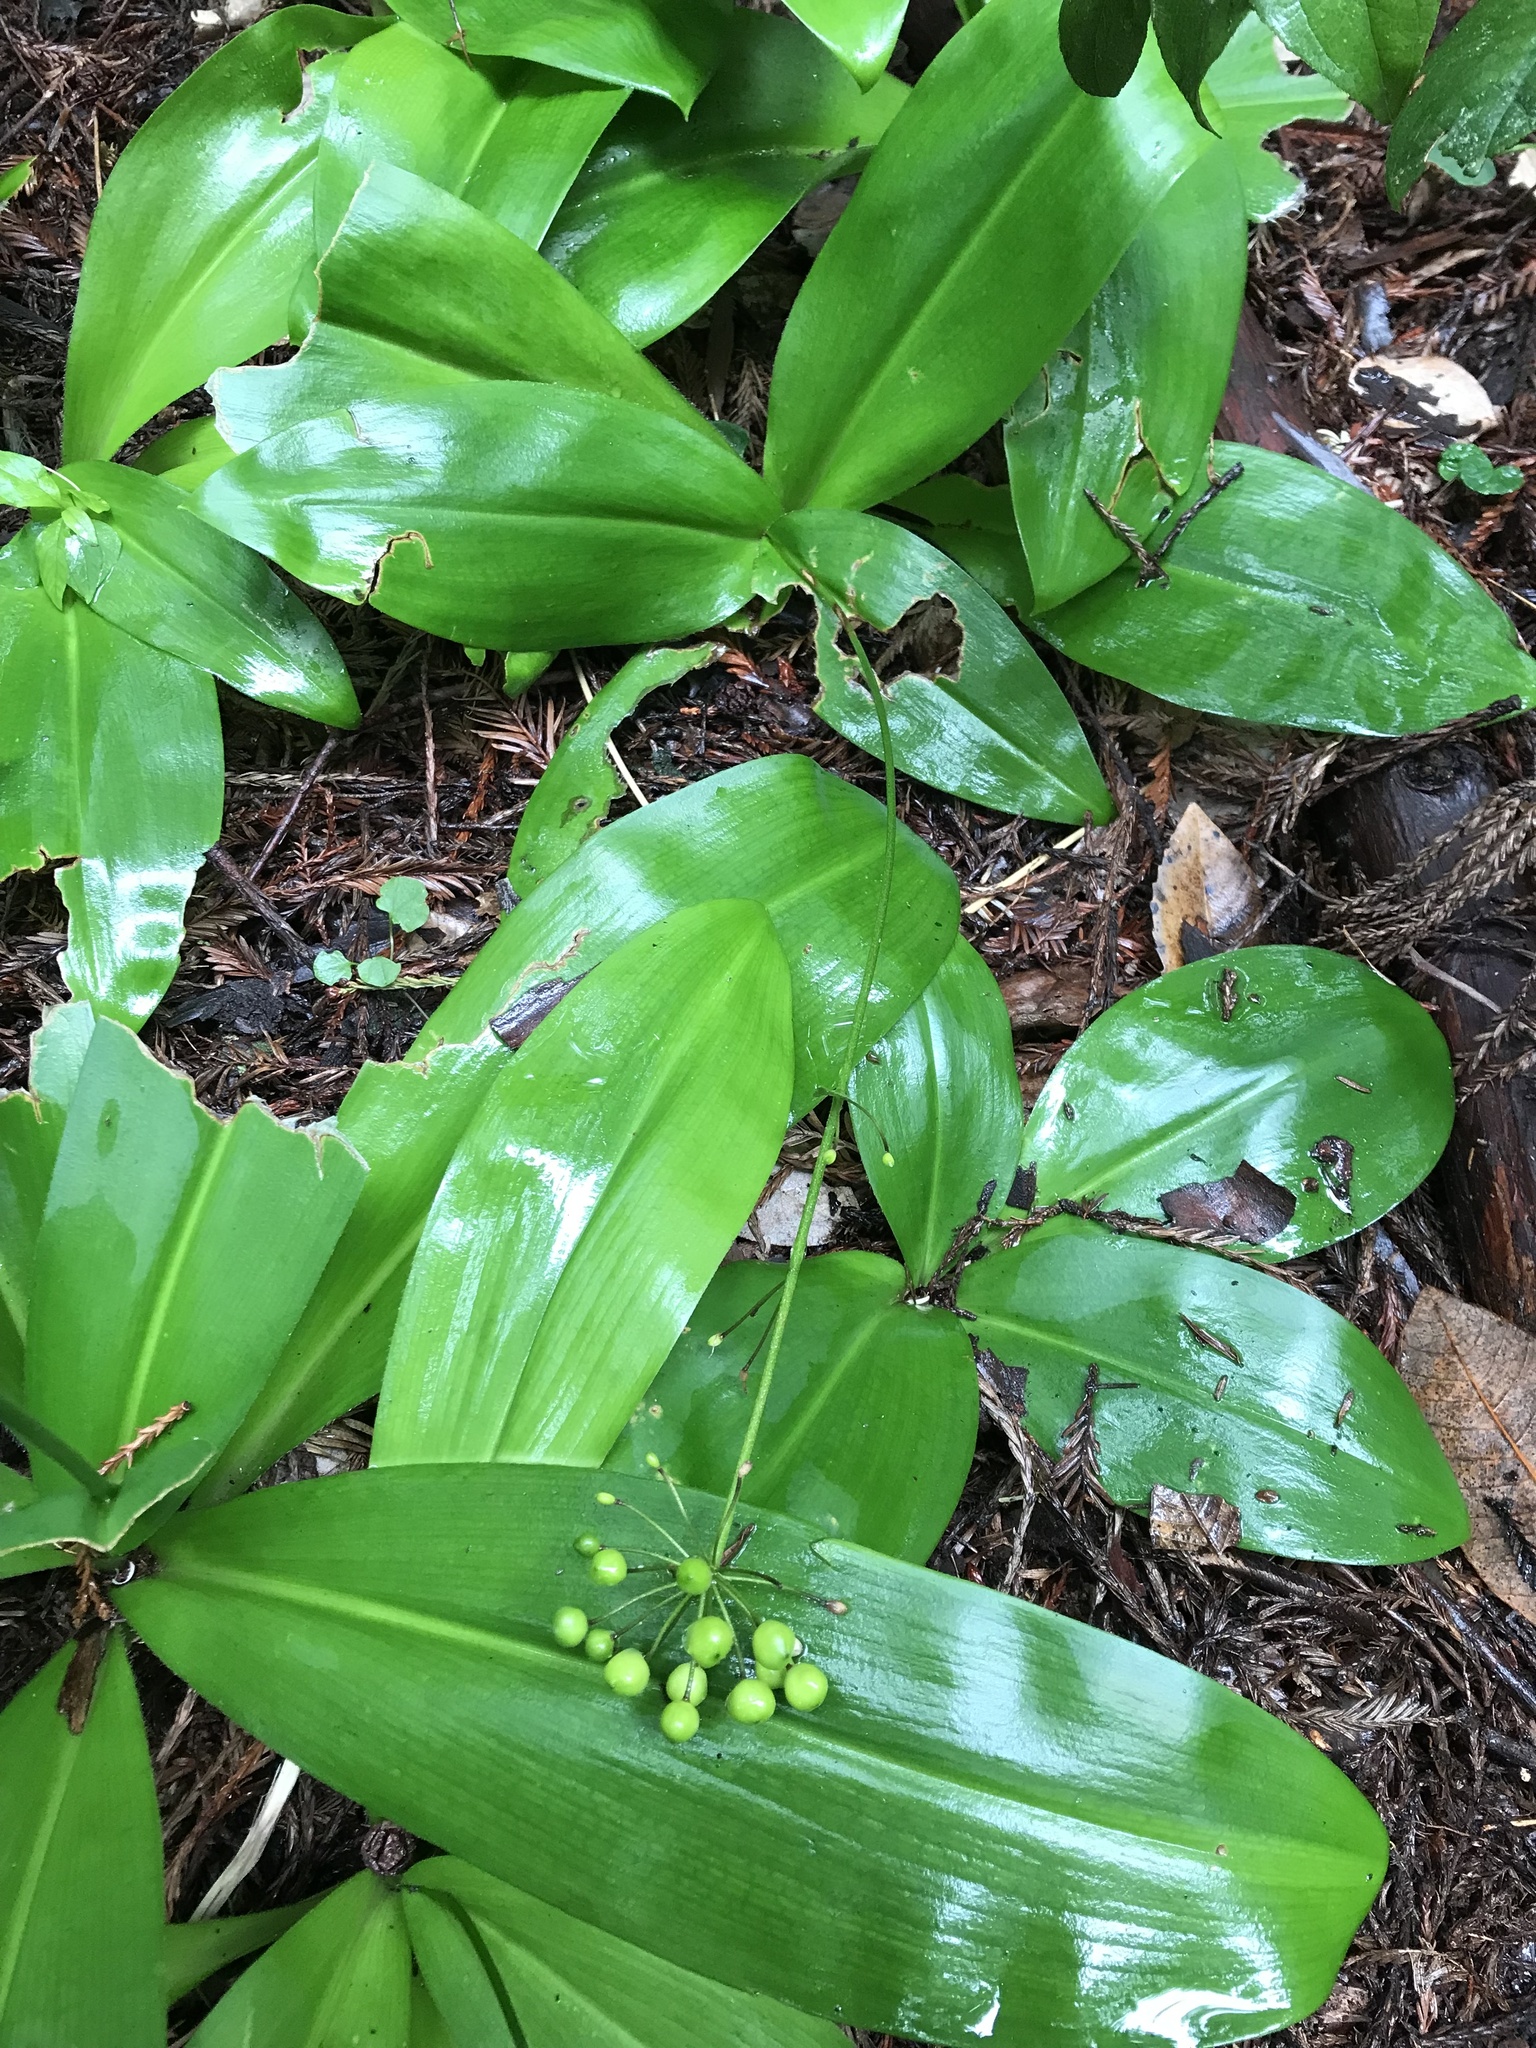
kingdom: Plantae
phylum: Tracheophyta
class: Liliopsida
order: Liliales
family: Liliaceae
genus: Clintonia
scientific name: Clintonia andrewsiana
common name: Red clintonia
